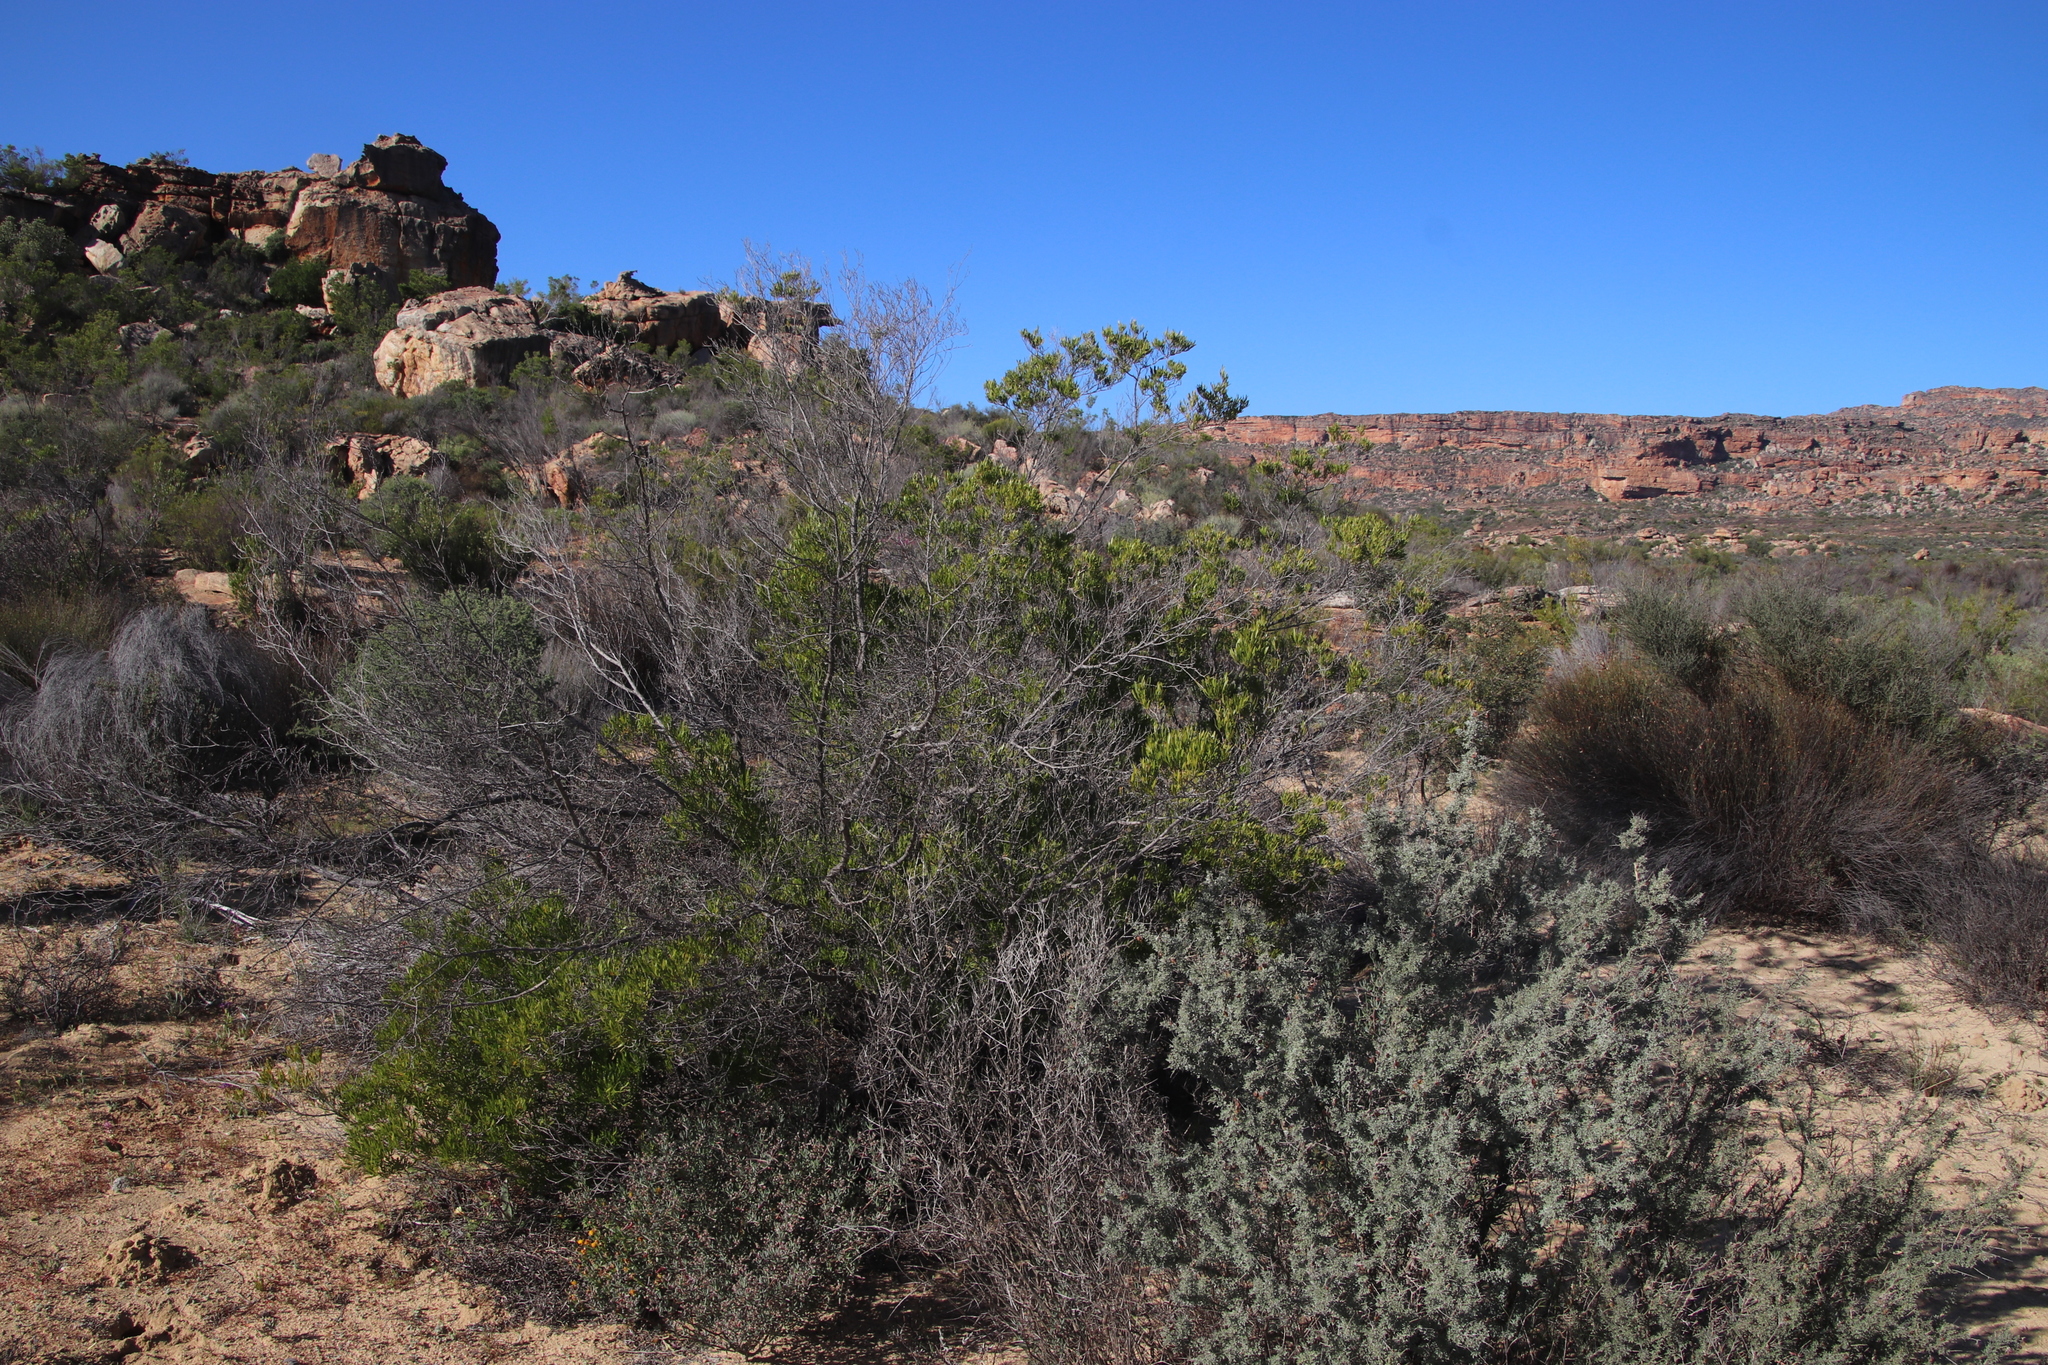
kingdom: Plantae
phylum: Tracheophyta
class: Magnoliopsida
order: Sapindales
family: Sapindaceae
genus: Dodonaea
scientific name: Dodonaea viscosa
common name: Hopbush
